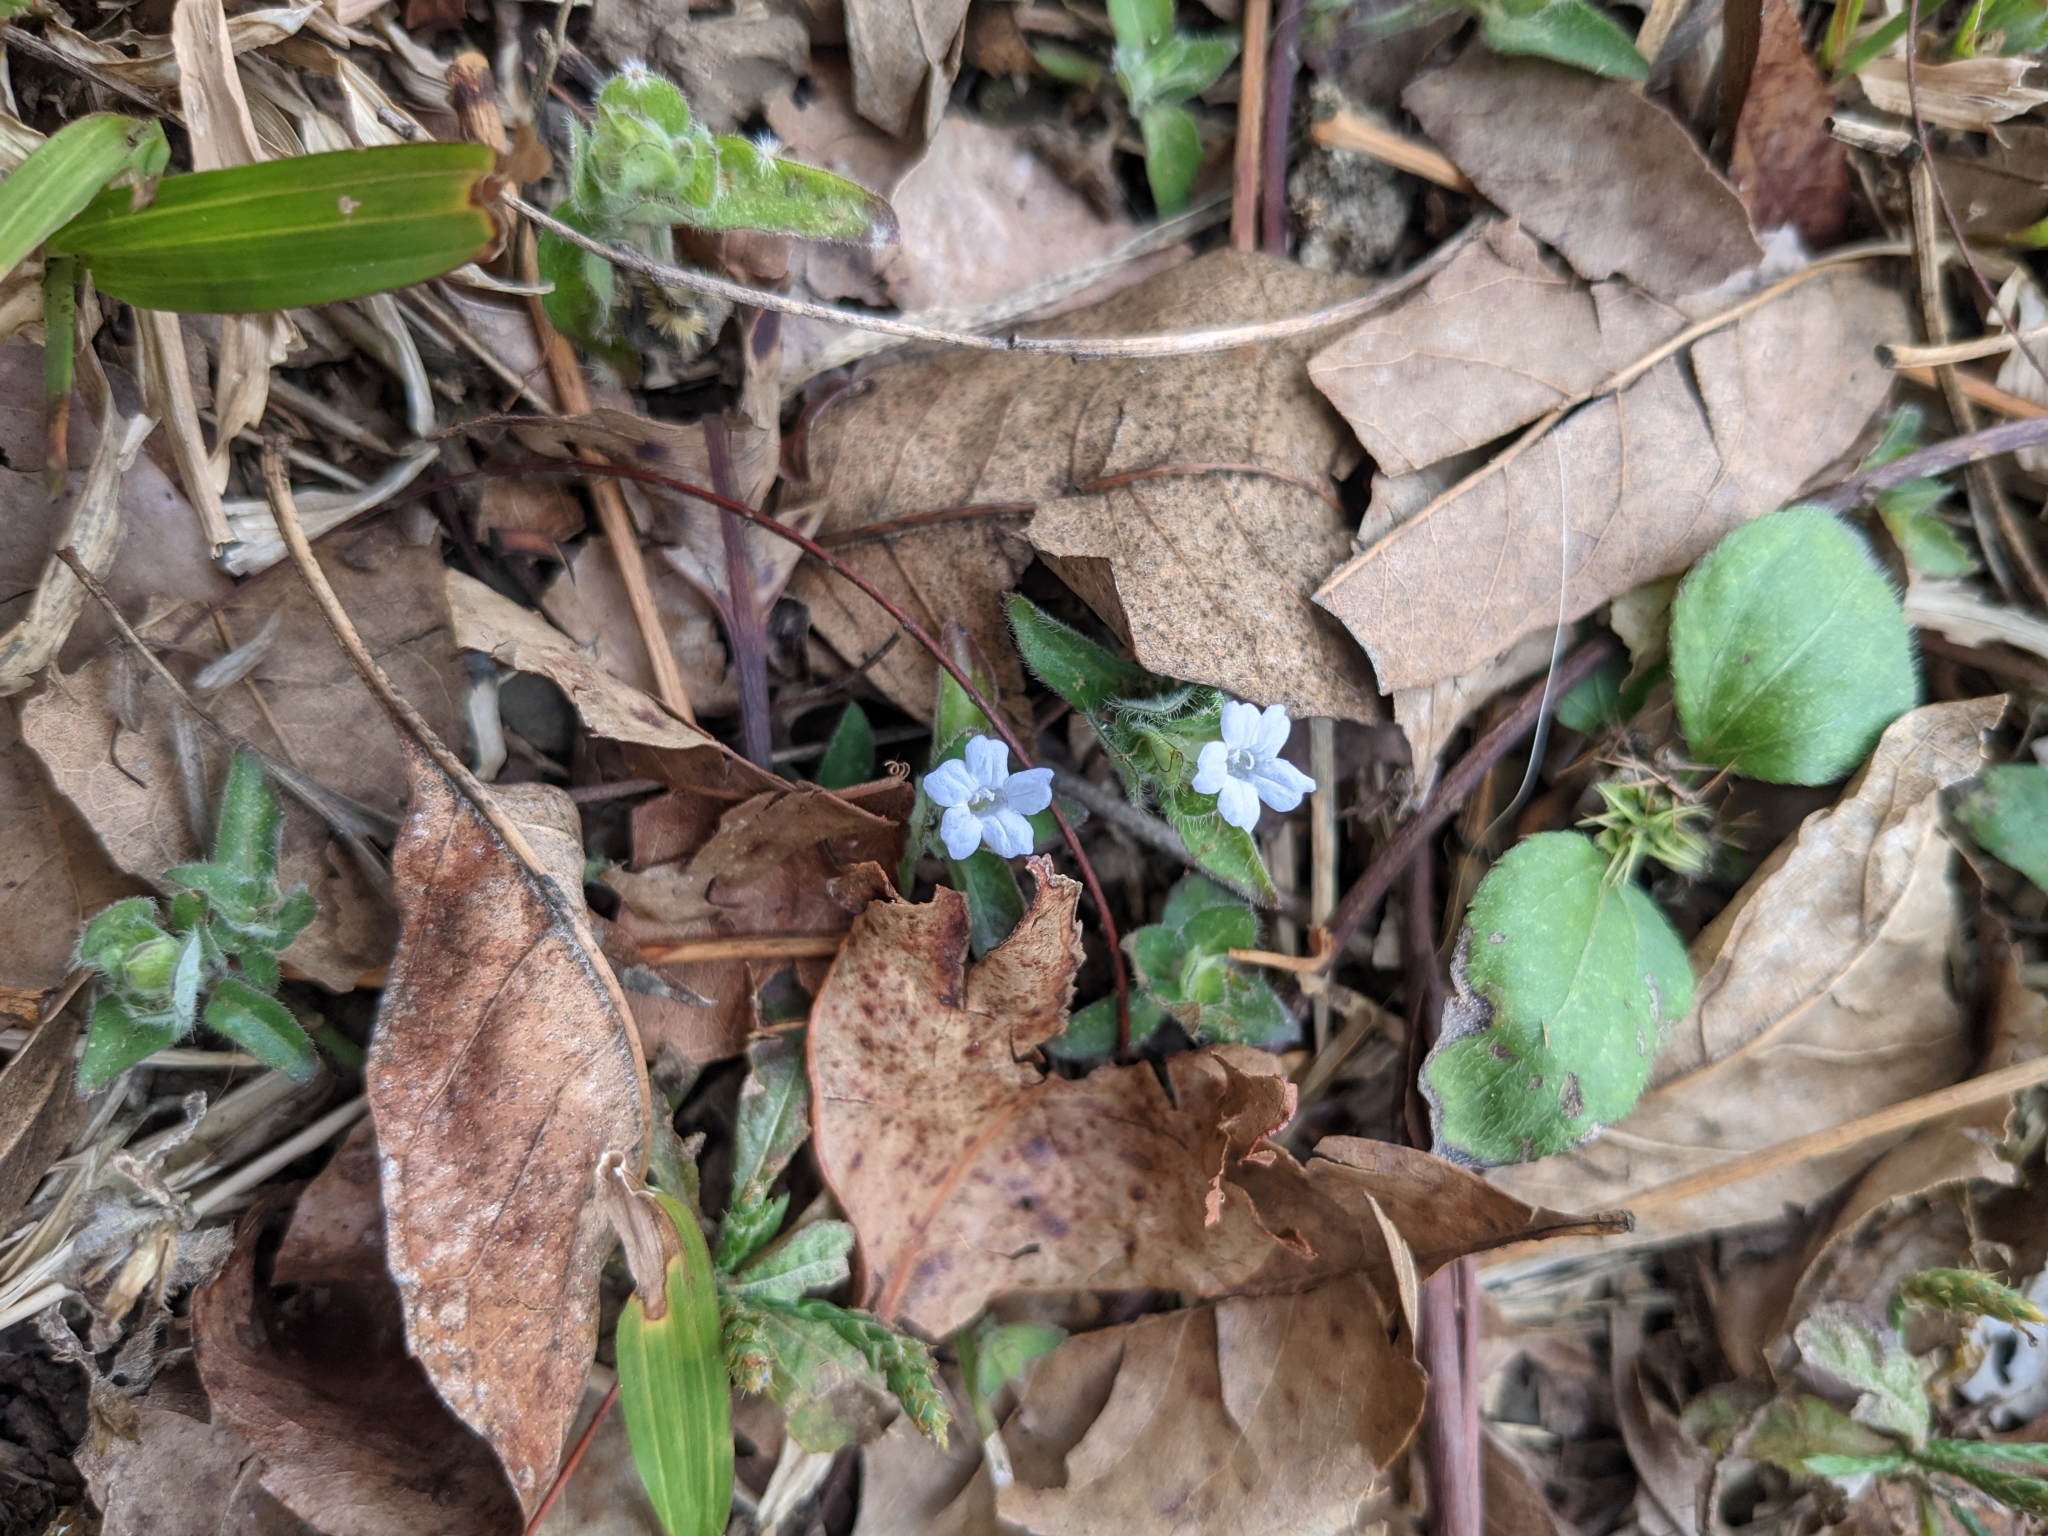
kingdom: Plantae
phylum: Tracheophyta
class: Magnoliopsida
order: Lamiales
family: Acanthaceae
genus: Ruellia
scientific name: Ruellia blechum
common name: Browne's blechum
